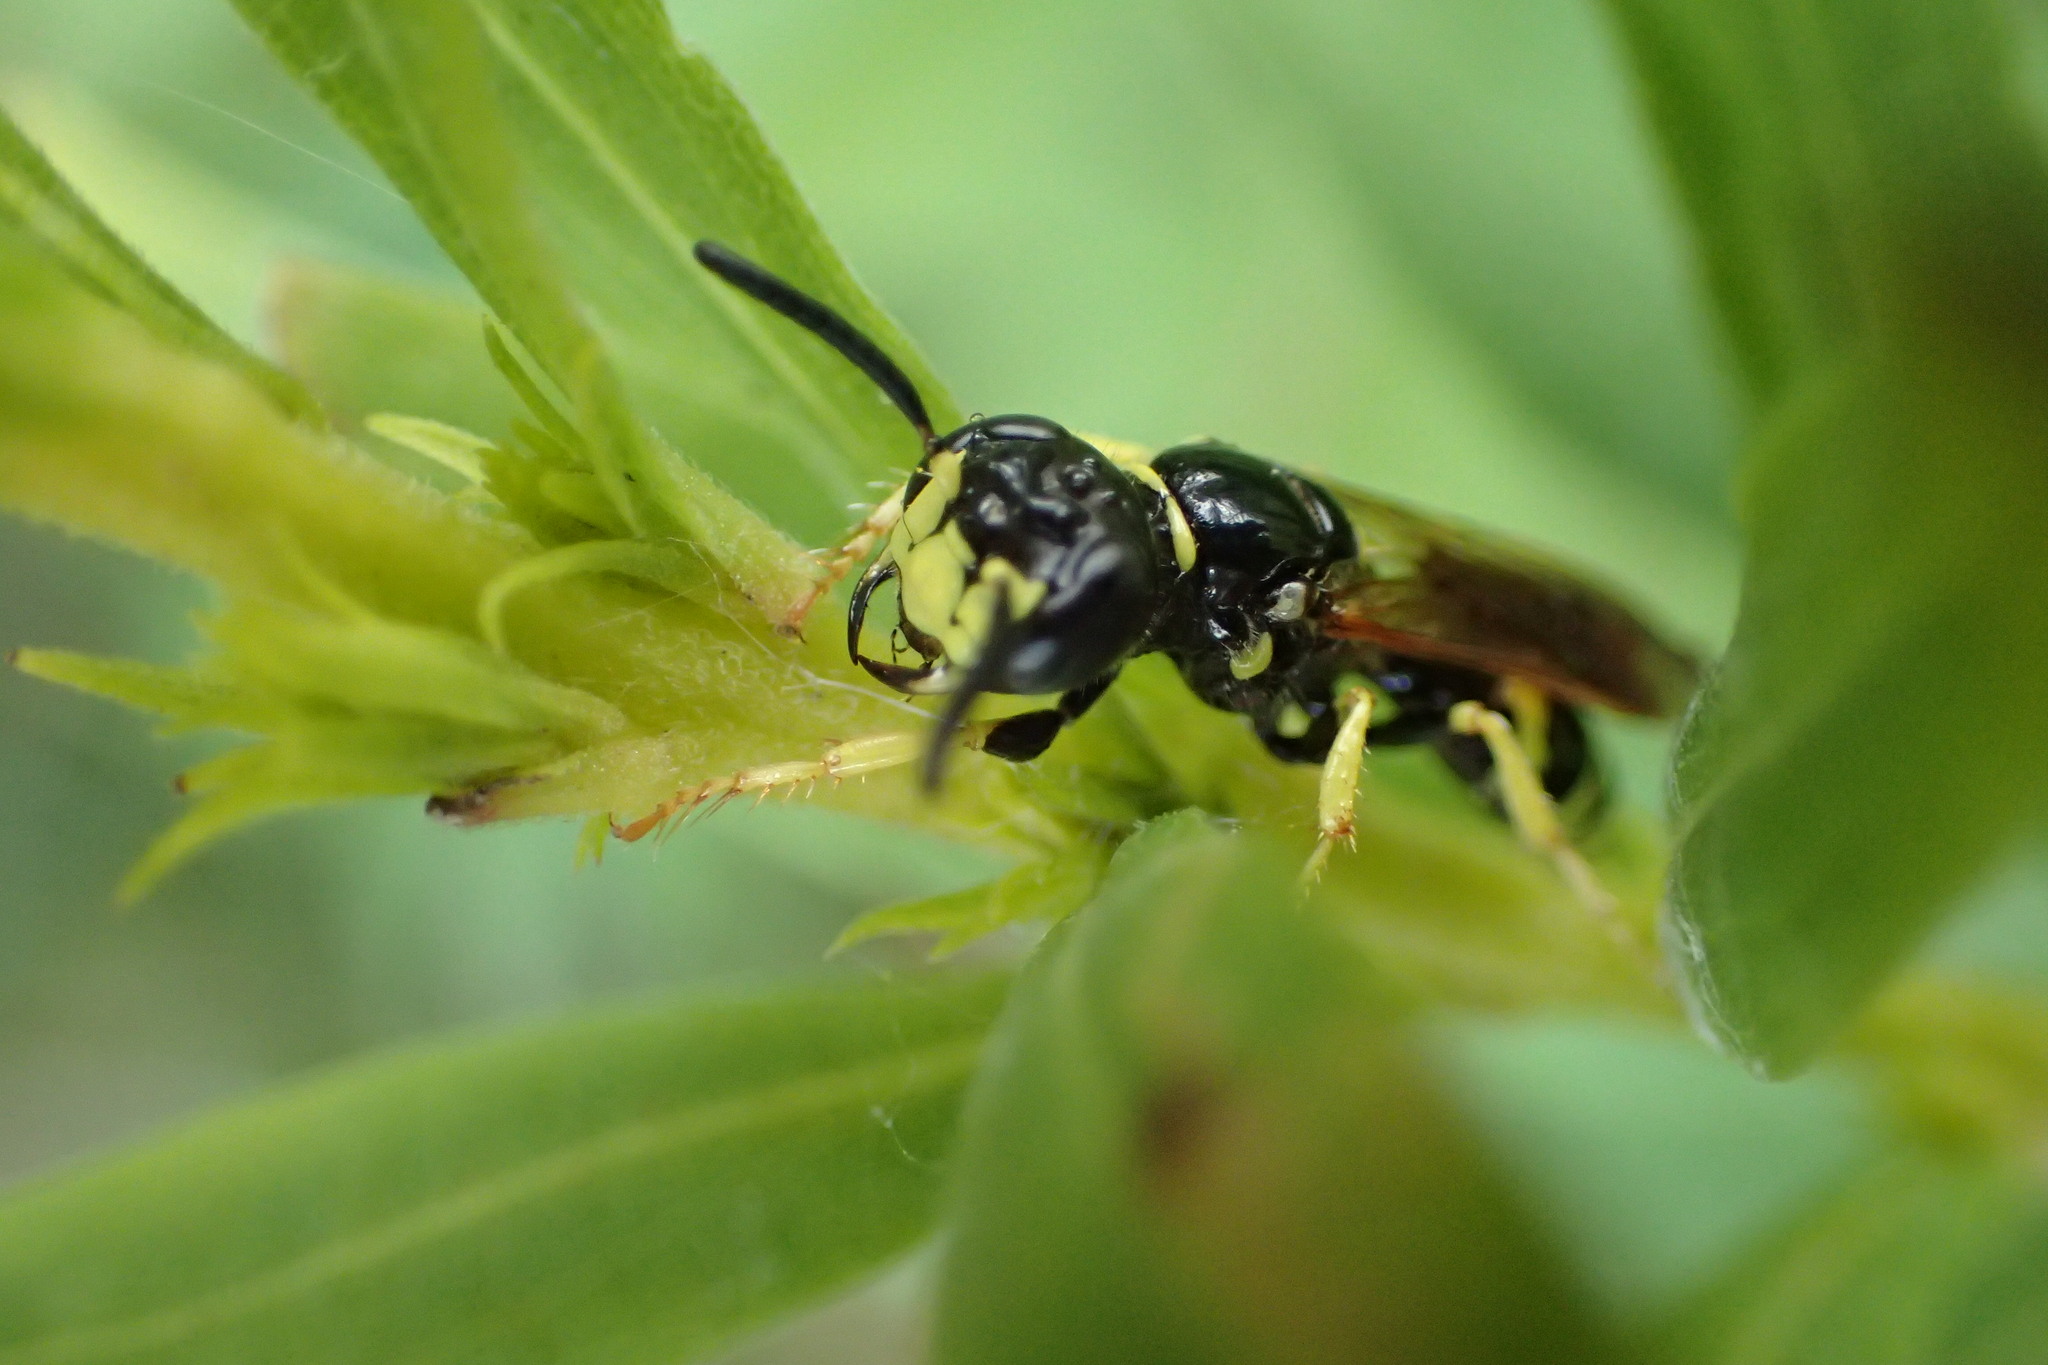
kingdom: Animalia
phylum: Arthropoda
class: Insecta
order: Hymenoptera
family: Crabronidae
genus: Philanthus
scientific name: Philanthus lepidus
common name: Pleasant beewolf
